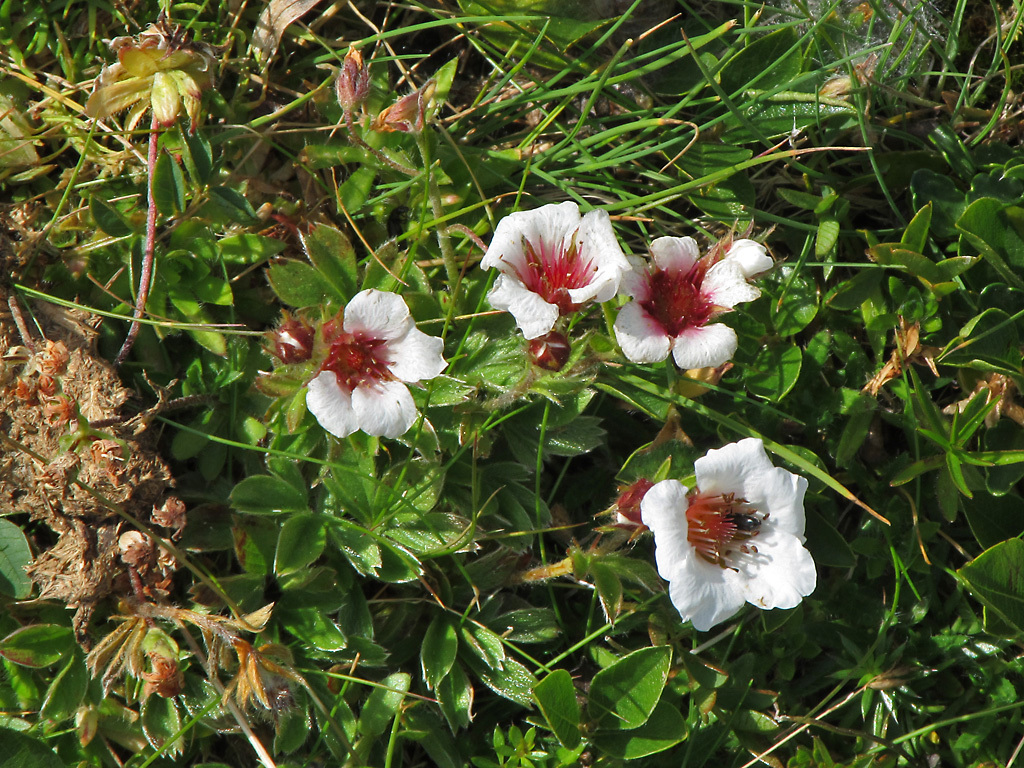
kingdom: Plantae
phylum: Tracheophyta
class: Magnoliopsida
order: Rosales
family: Rosaceae
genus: Potentilla
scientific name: Potentilla clusiana
